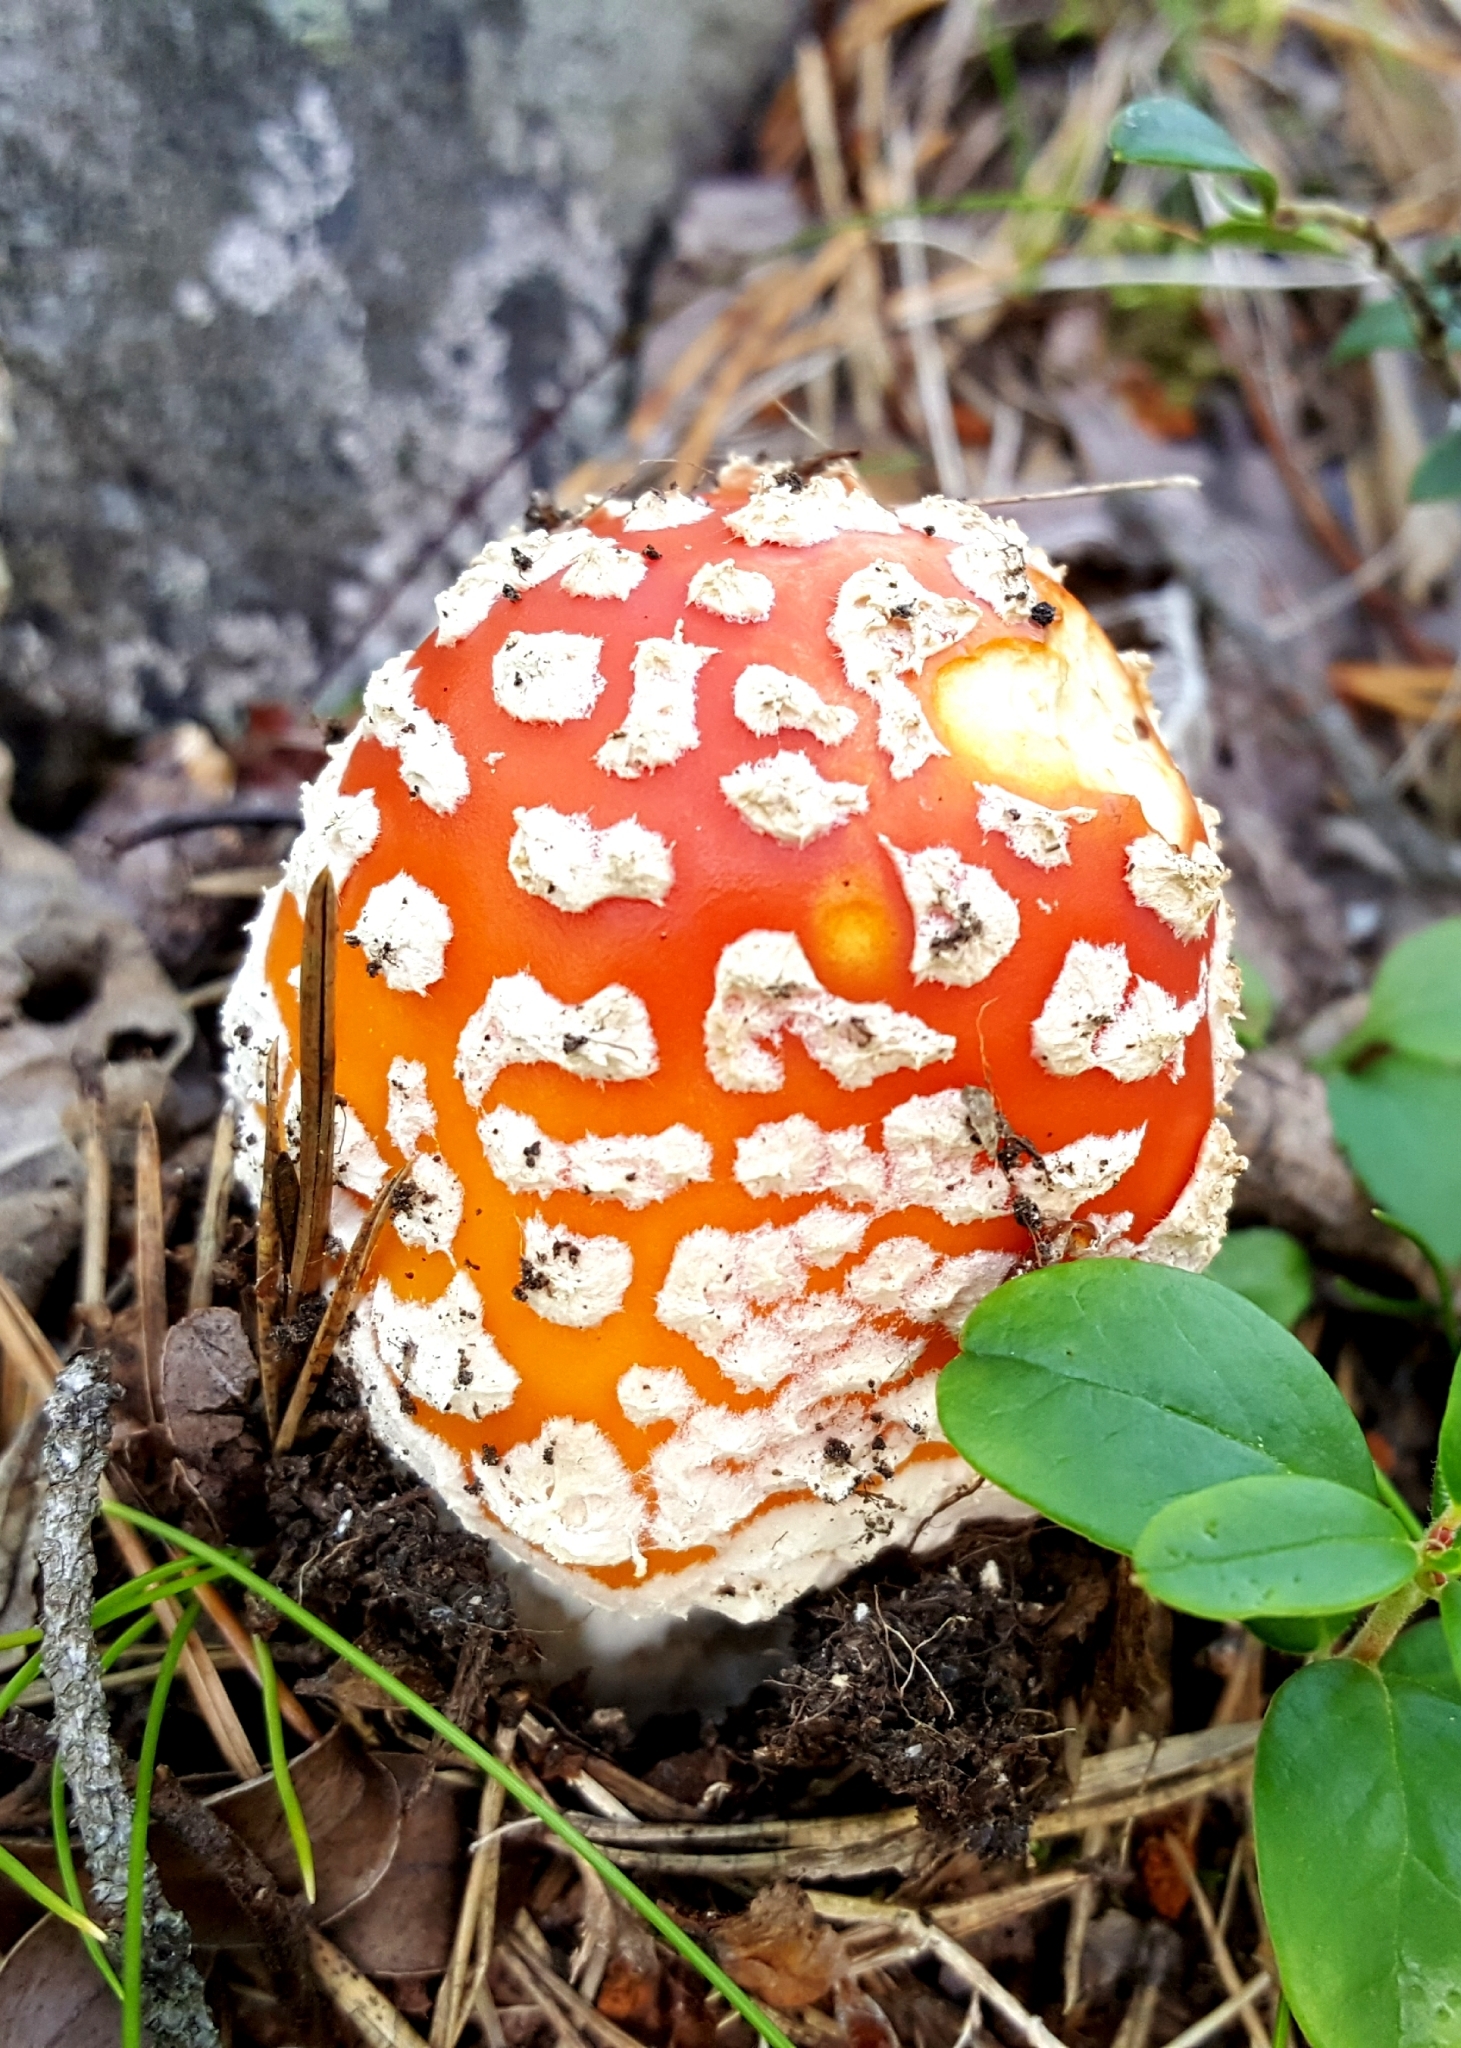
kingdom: Fungi
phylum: Basidiomycota
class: Agaricomycetes
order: Agaricales
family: Amanitaceae
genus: Amanita
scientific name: Amanita muscaria
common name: Fly agaric
